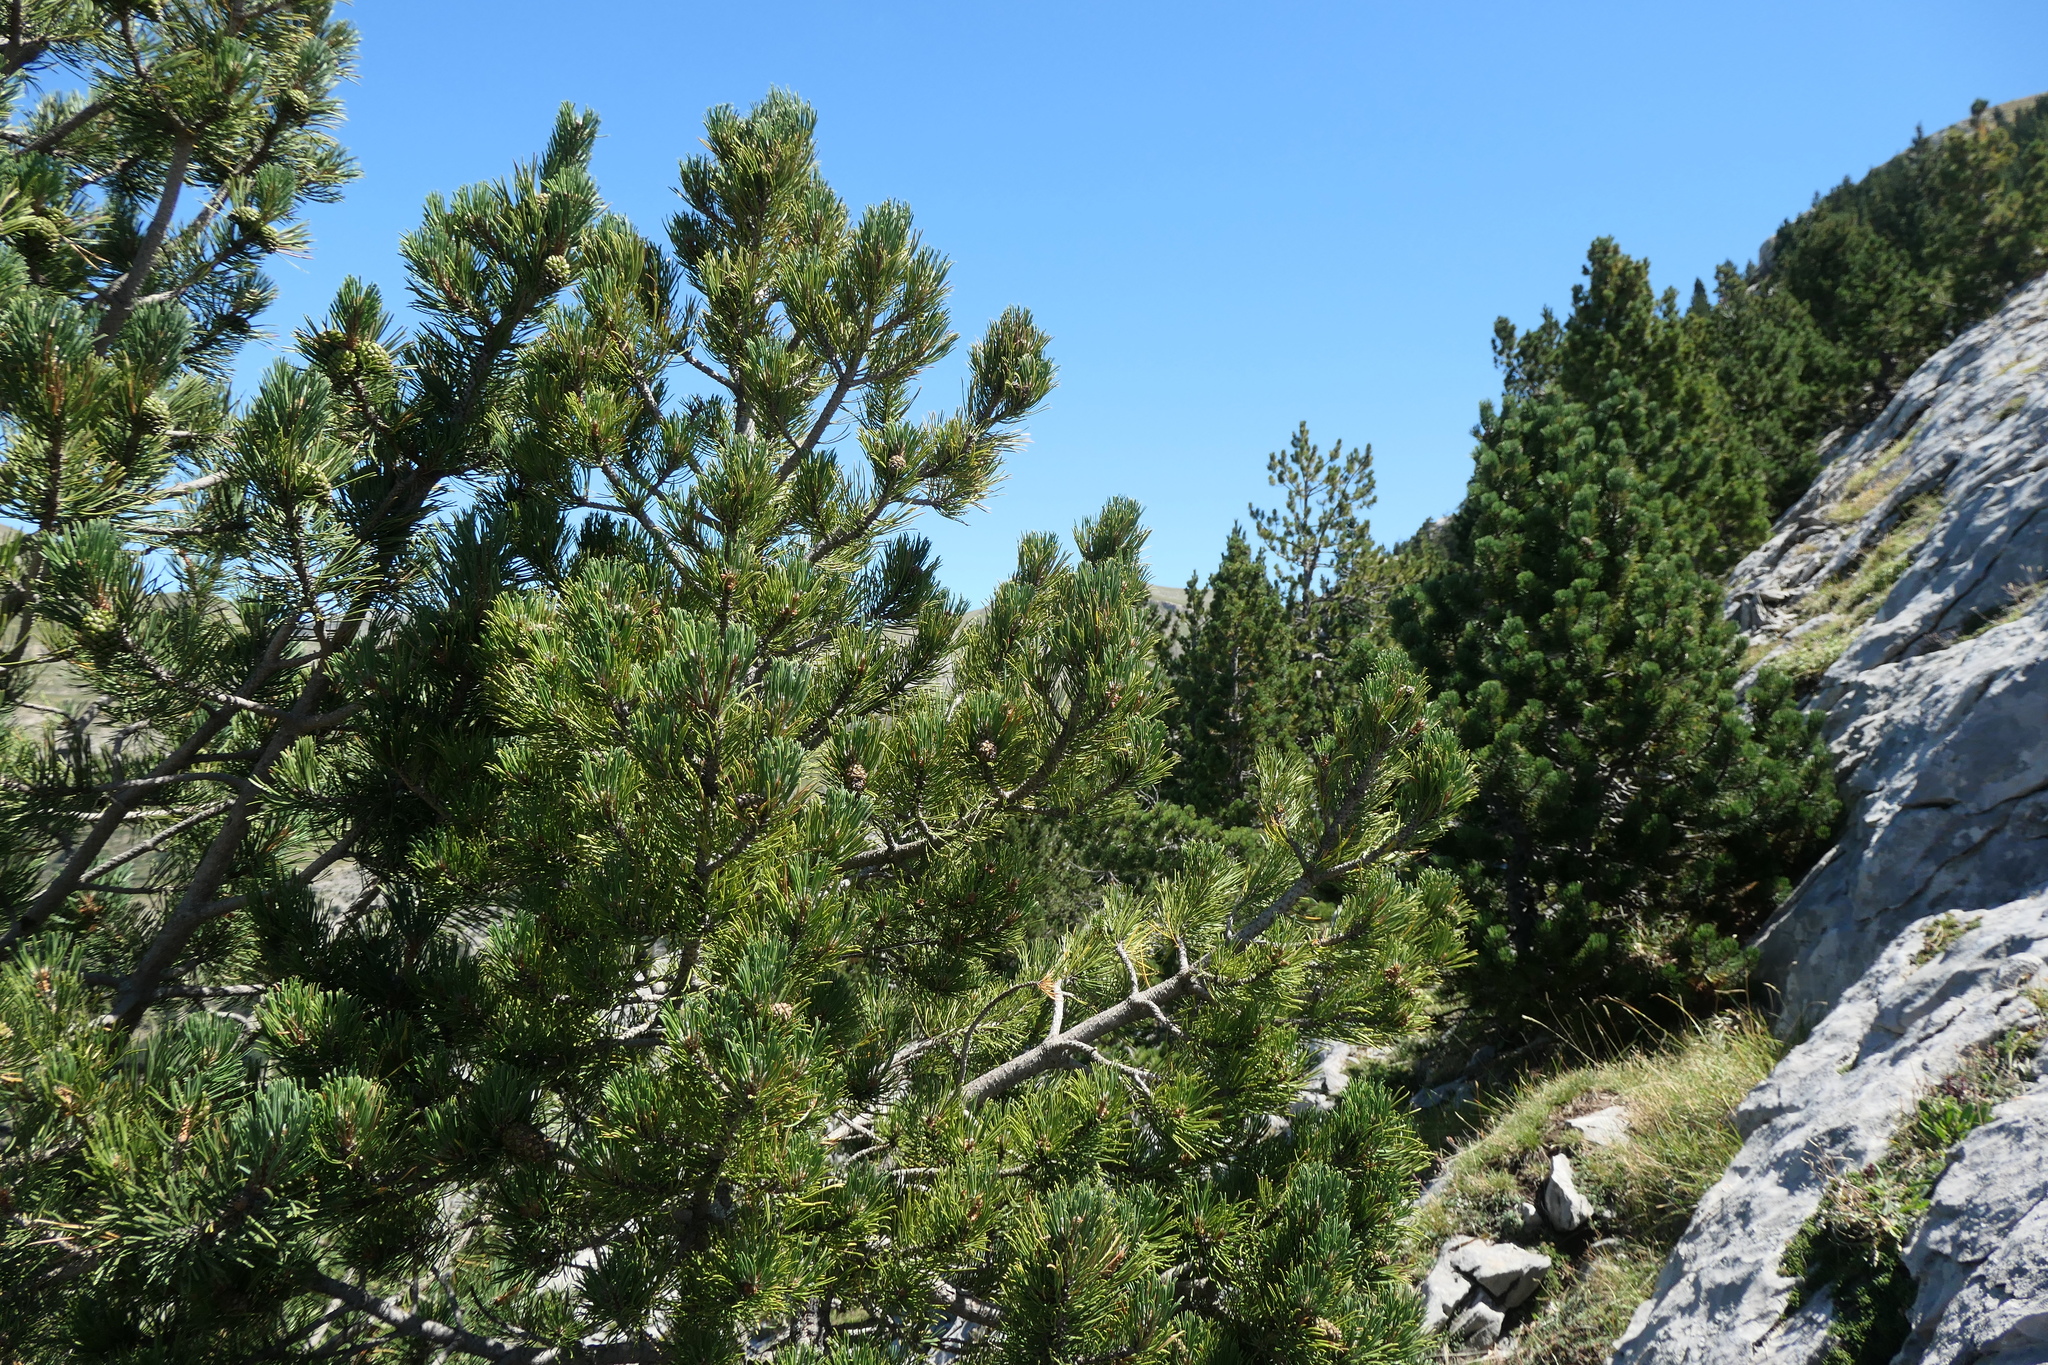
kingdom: Plantae
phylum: Tracheophyta
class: Pinopsida
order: Pinales
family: Pinaceae
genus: Pinus
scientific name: Pinus uncinata
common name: Mountain pine
